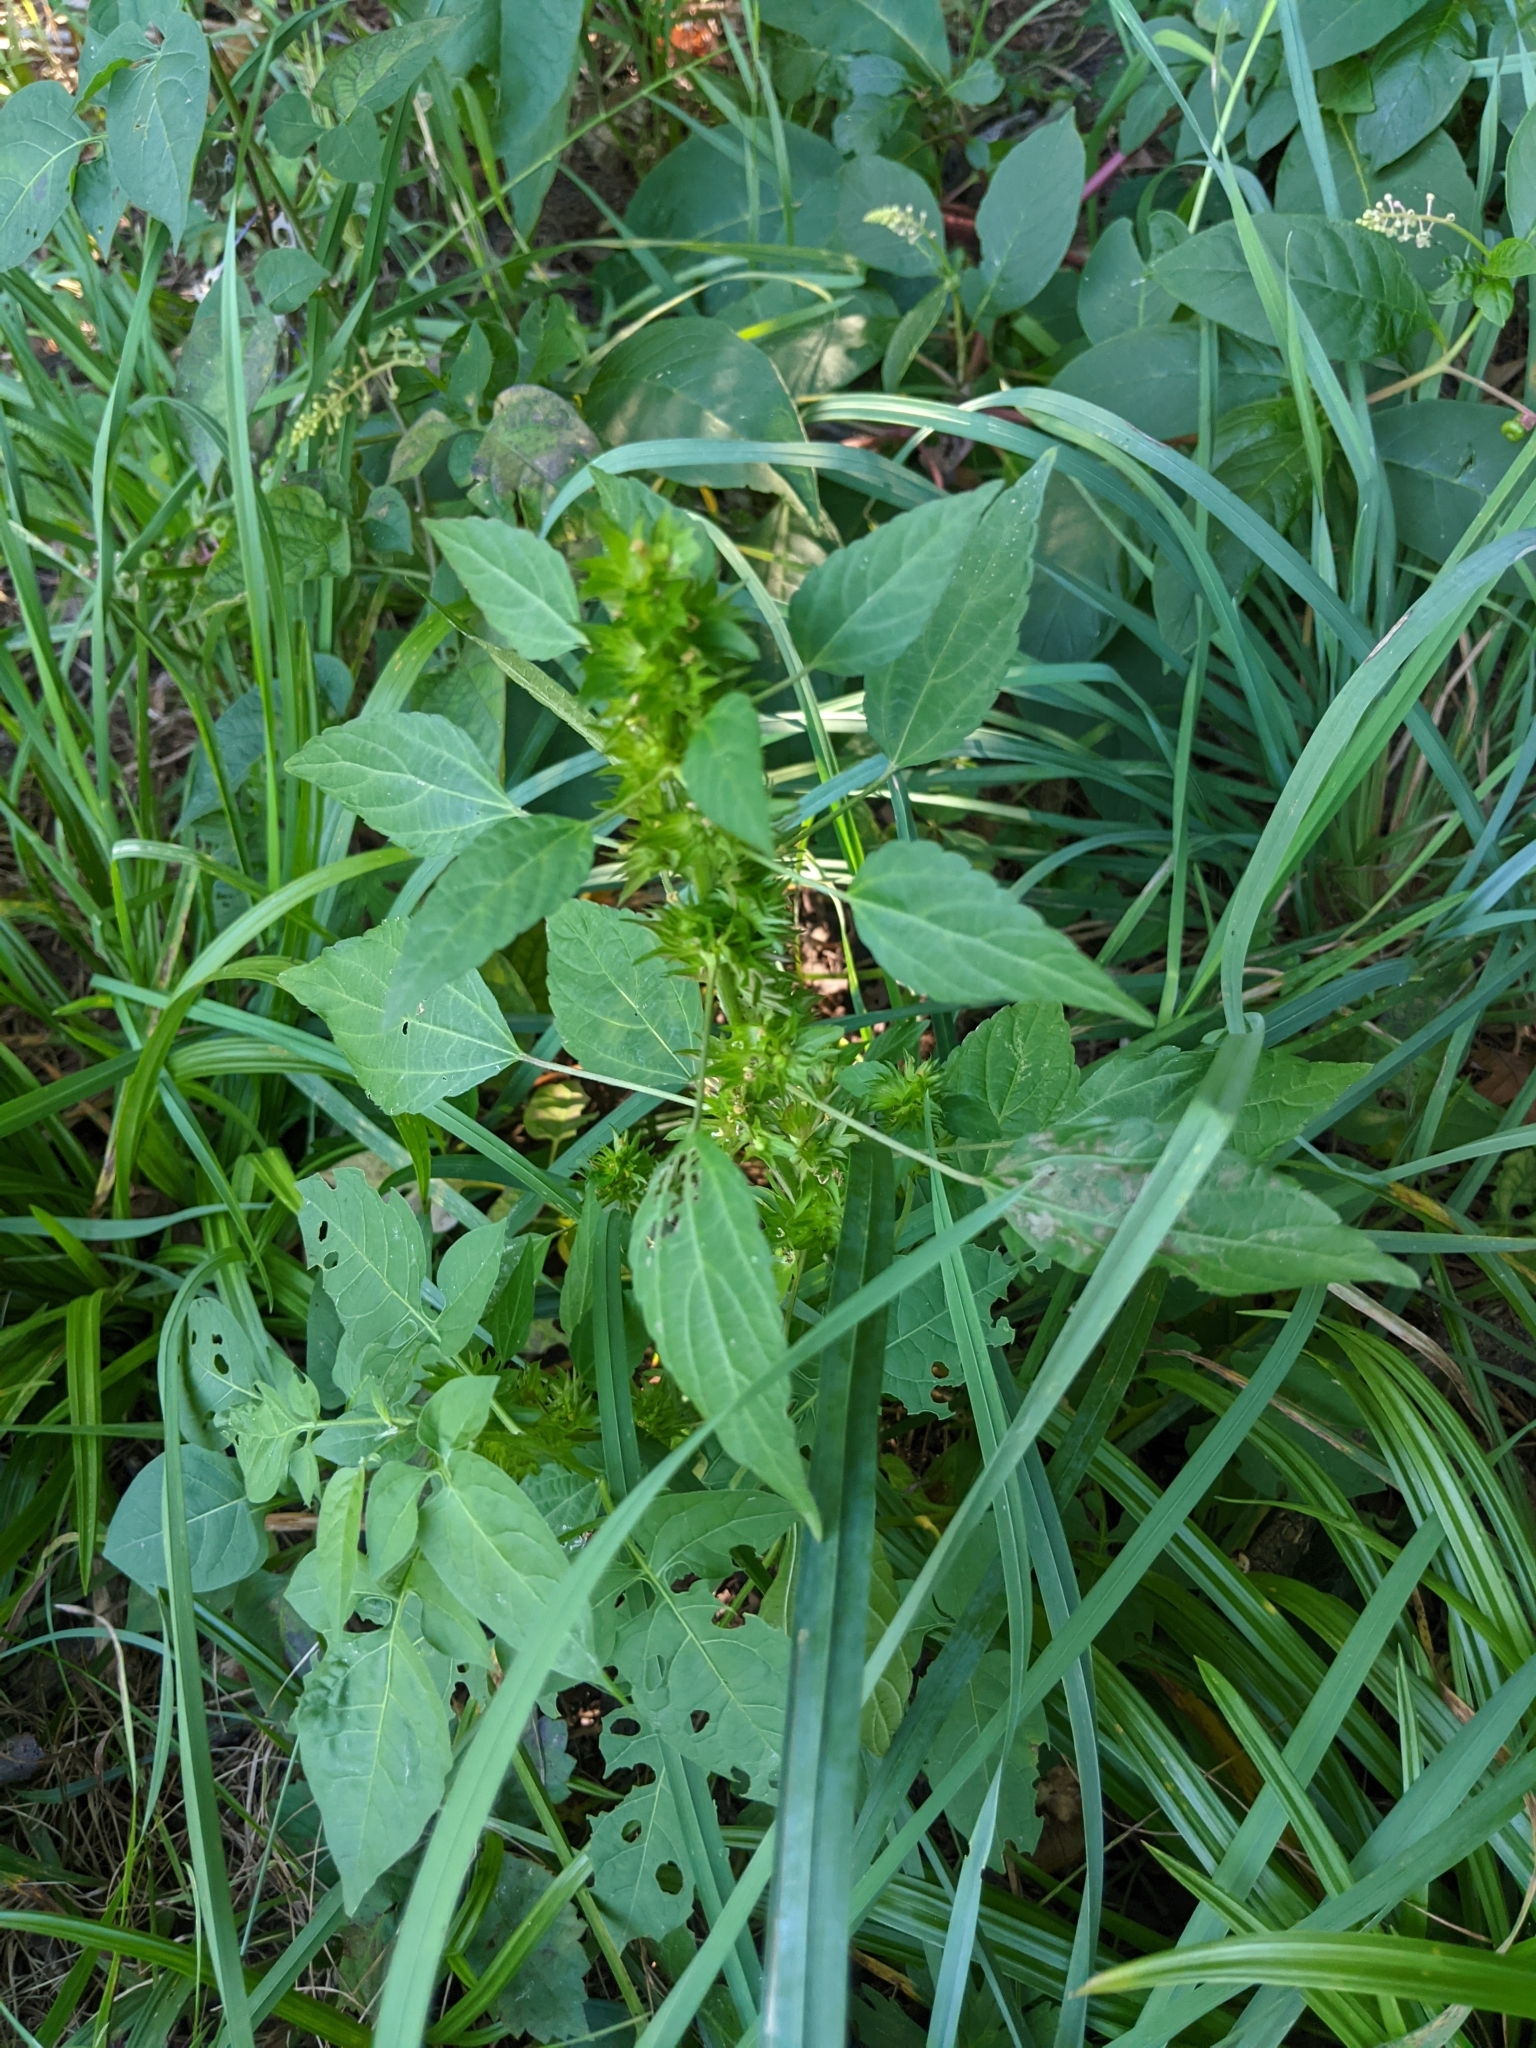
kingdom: Plantae
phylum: Tracheophyta
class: Magnoliopsida
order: Malpighiales
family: Euphorbiaceae
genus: Acalypha
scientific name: Acalypha rhomboidea
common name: Rhombic copperleaf
